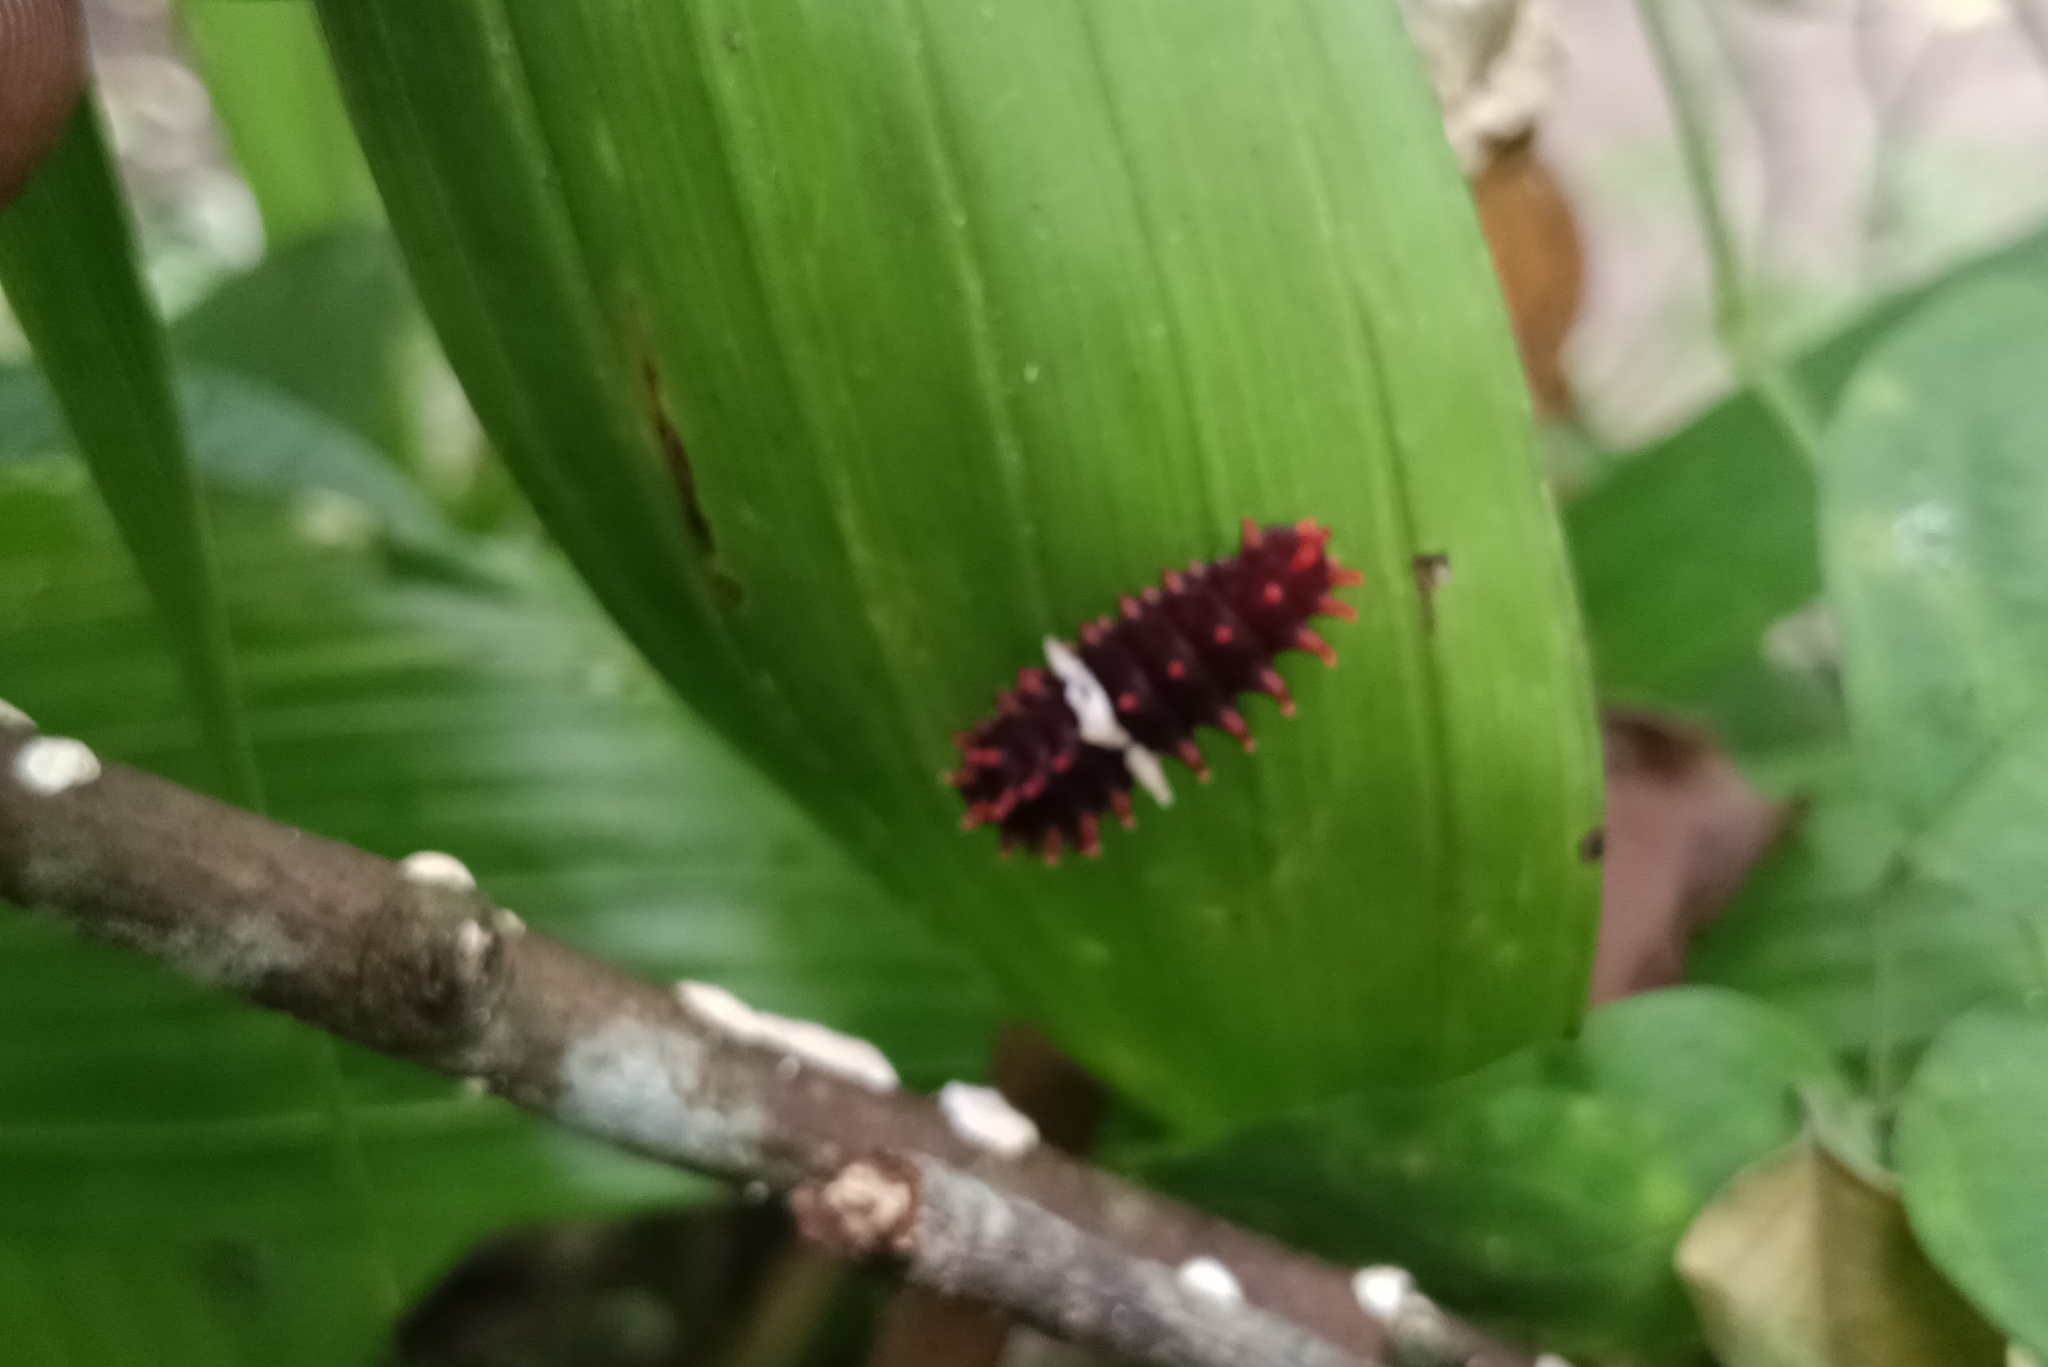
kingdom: Animalia
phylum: Arthropoda
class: Insecta
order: Lepidoptera
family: Papilionidae
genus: Pachliopta
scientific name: Pachliopta aristolochiae
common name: Common rose
